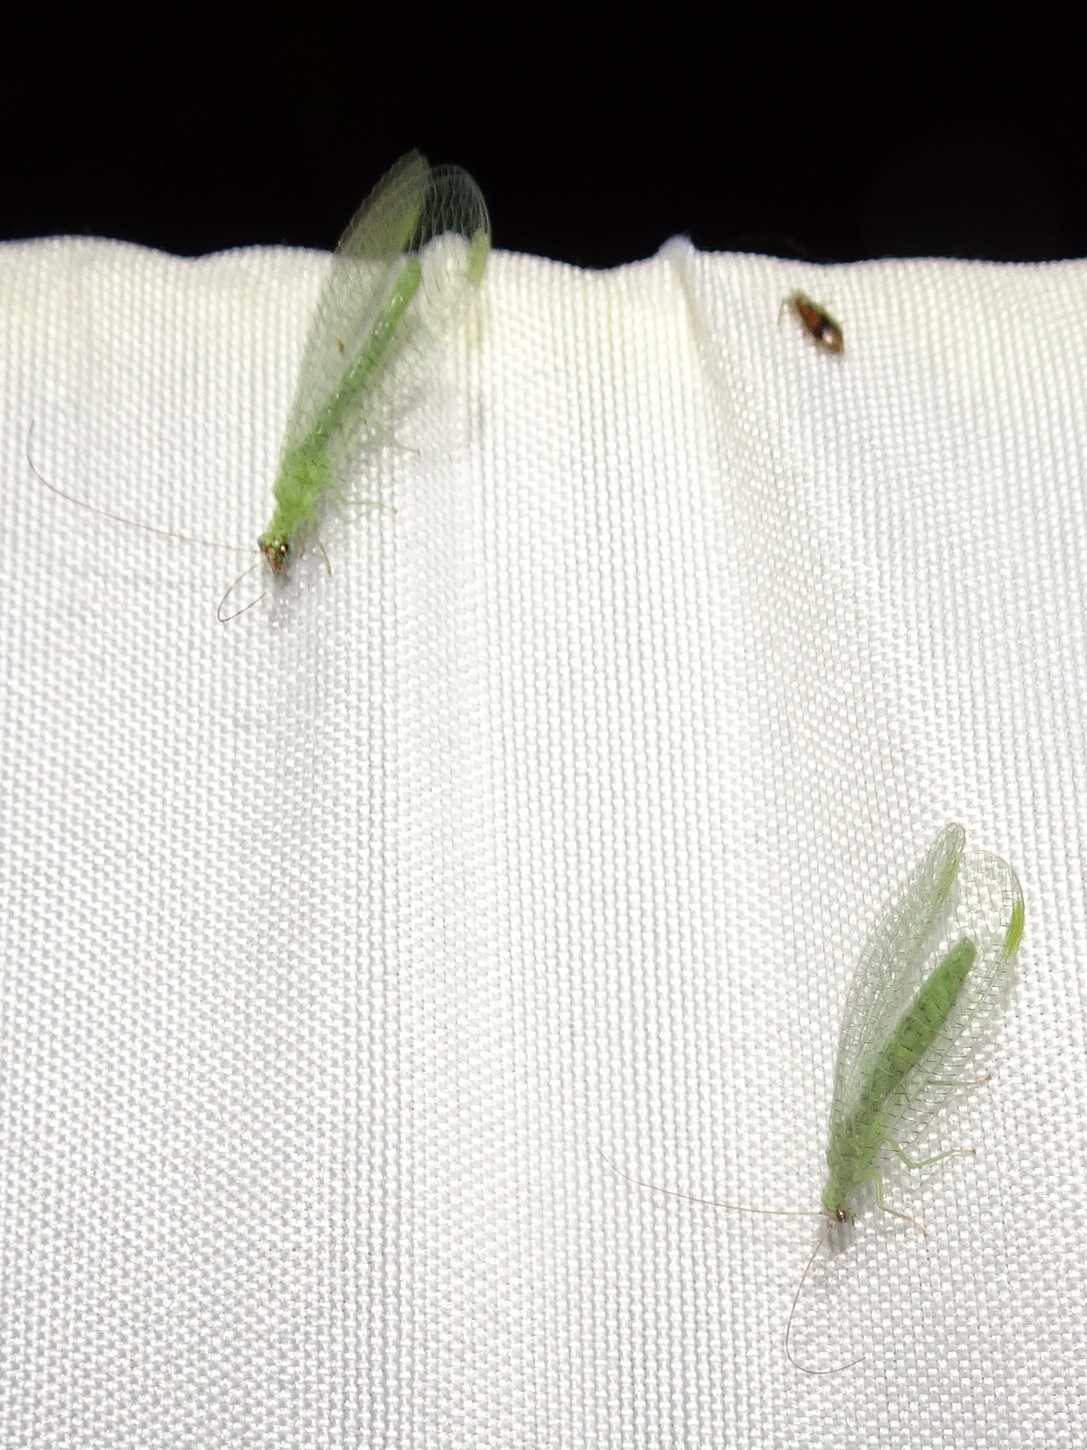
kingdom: Animalia
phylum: Arthropoda
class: Insecta
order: Neuroptera
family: Chrysopidae
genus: Chrysopa
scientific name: Chrysopa oculata
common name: Golden-eyed lacewing
